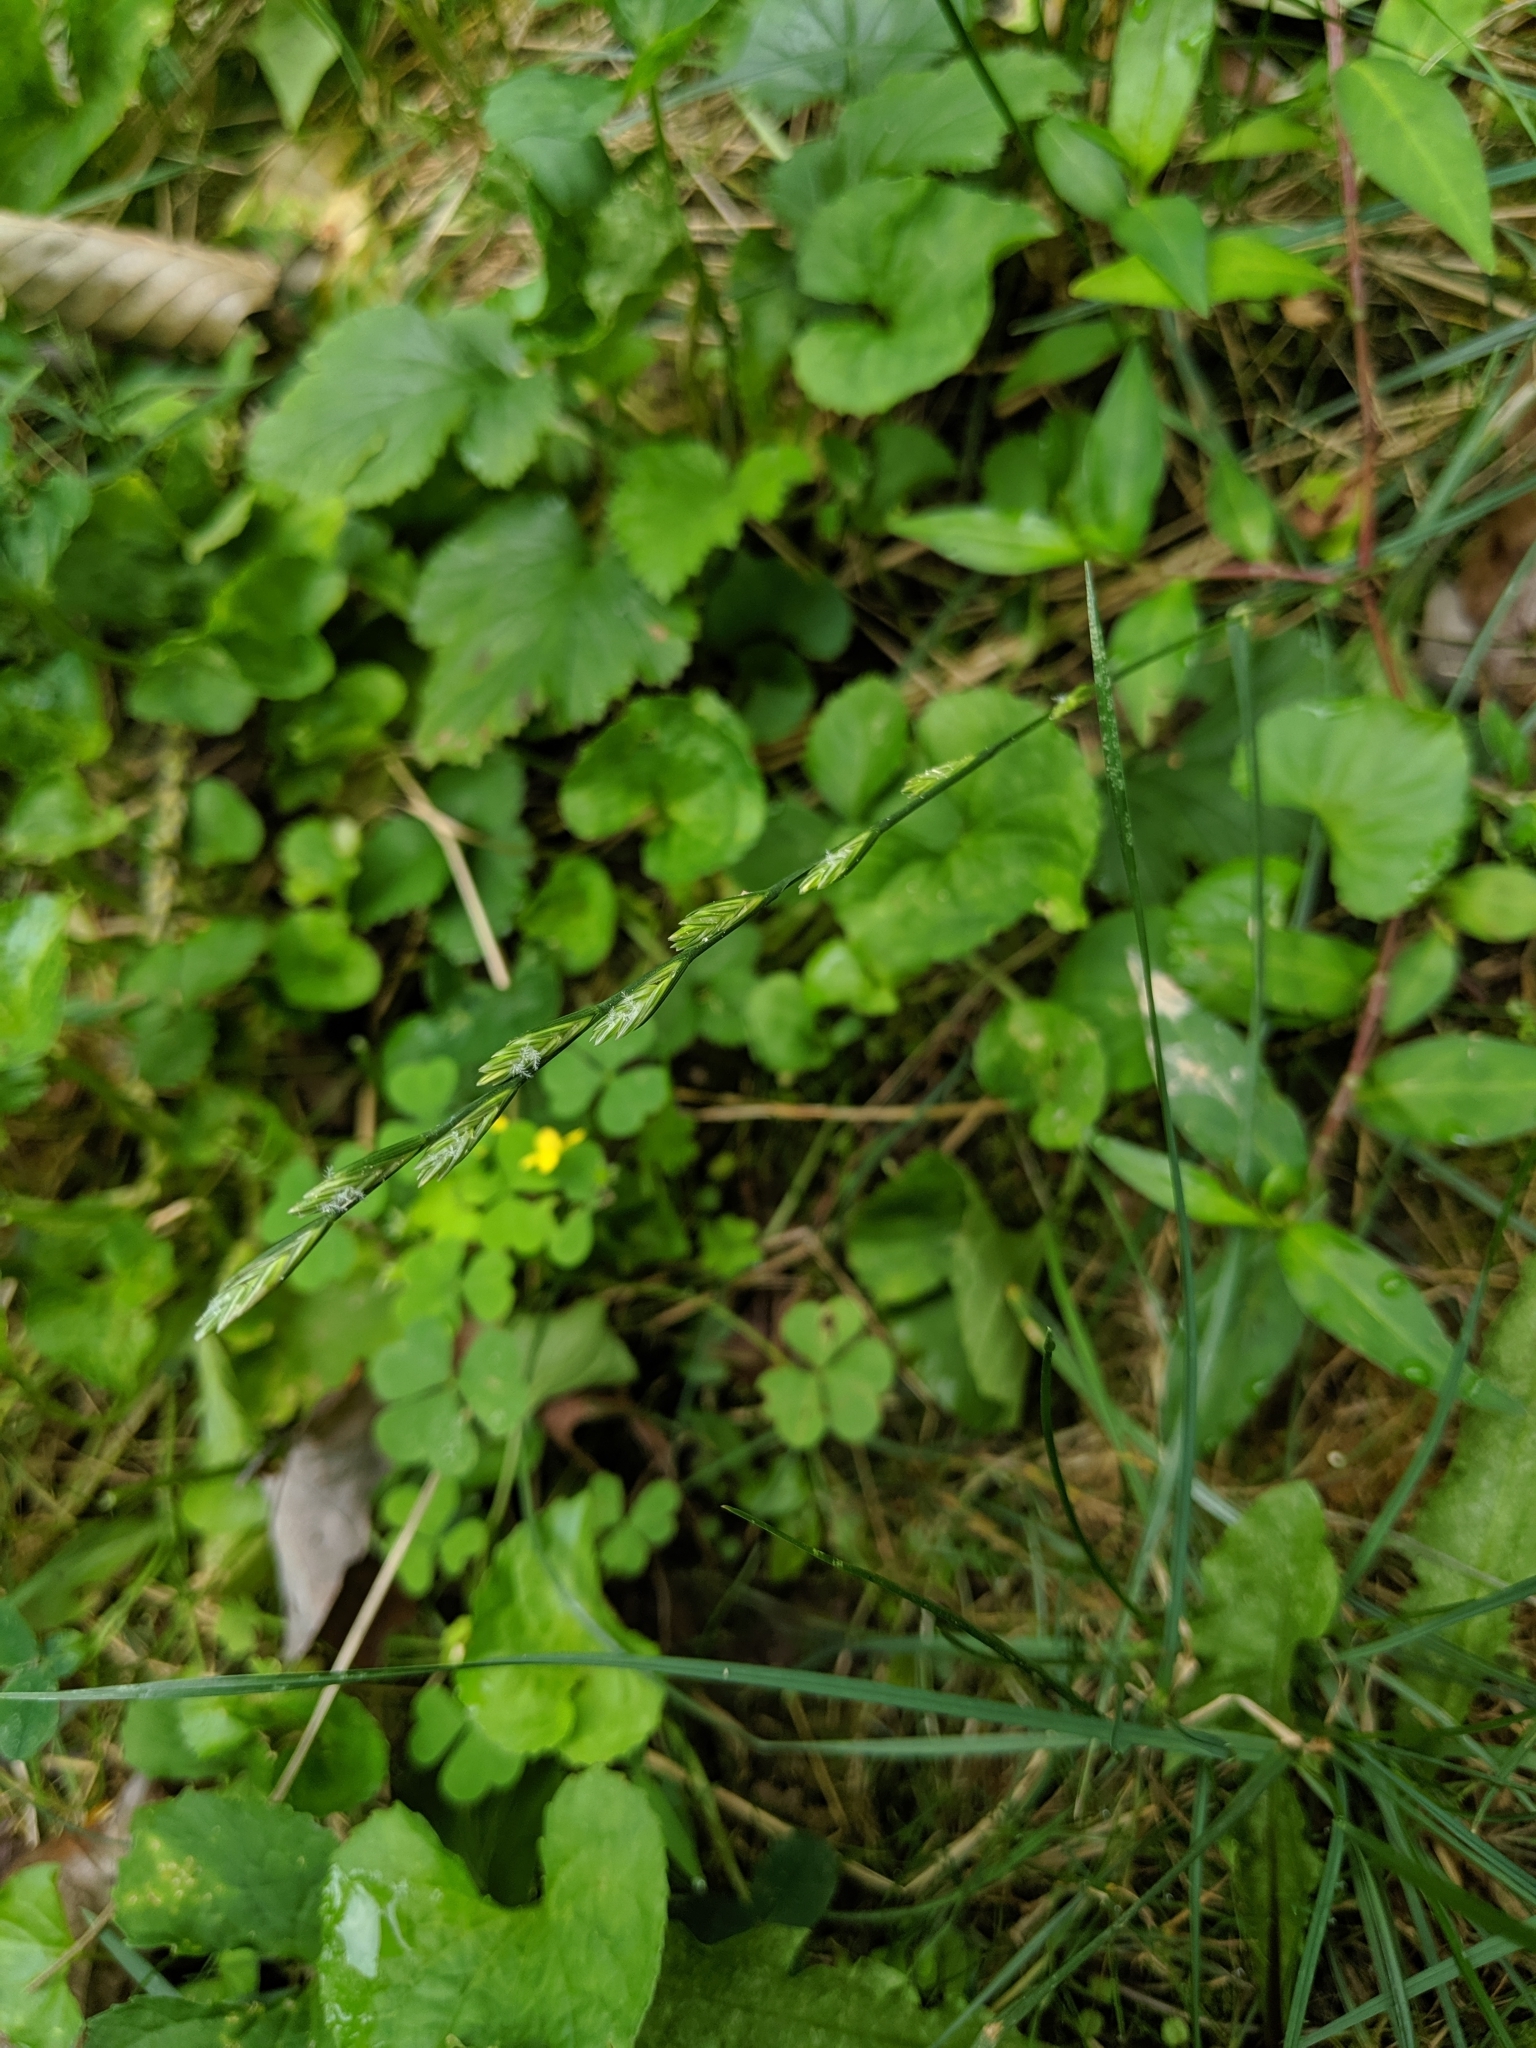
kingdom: Plantae
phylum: Tracheophyta
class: Liliopsida
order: Poales
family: Poaceae
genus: Lolium
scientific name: Lolium perenne
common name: Perennial ryegrass
